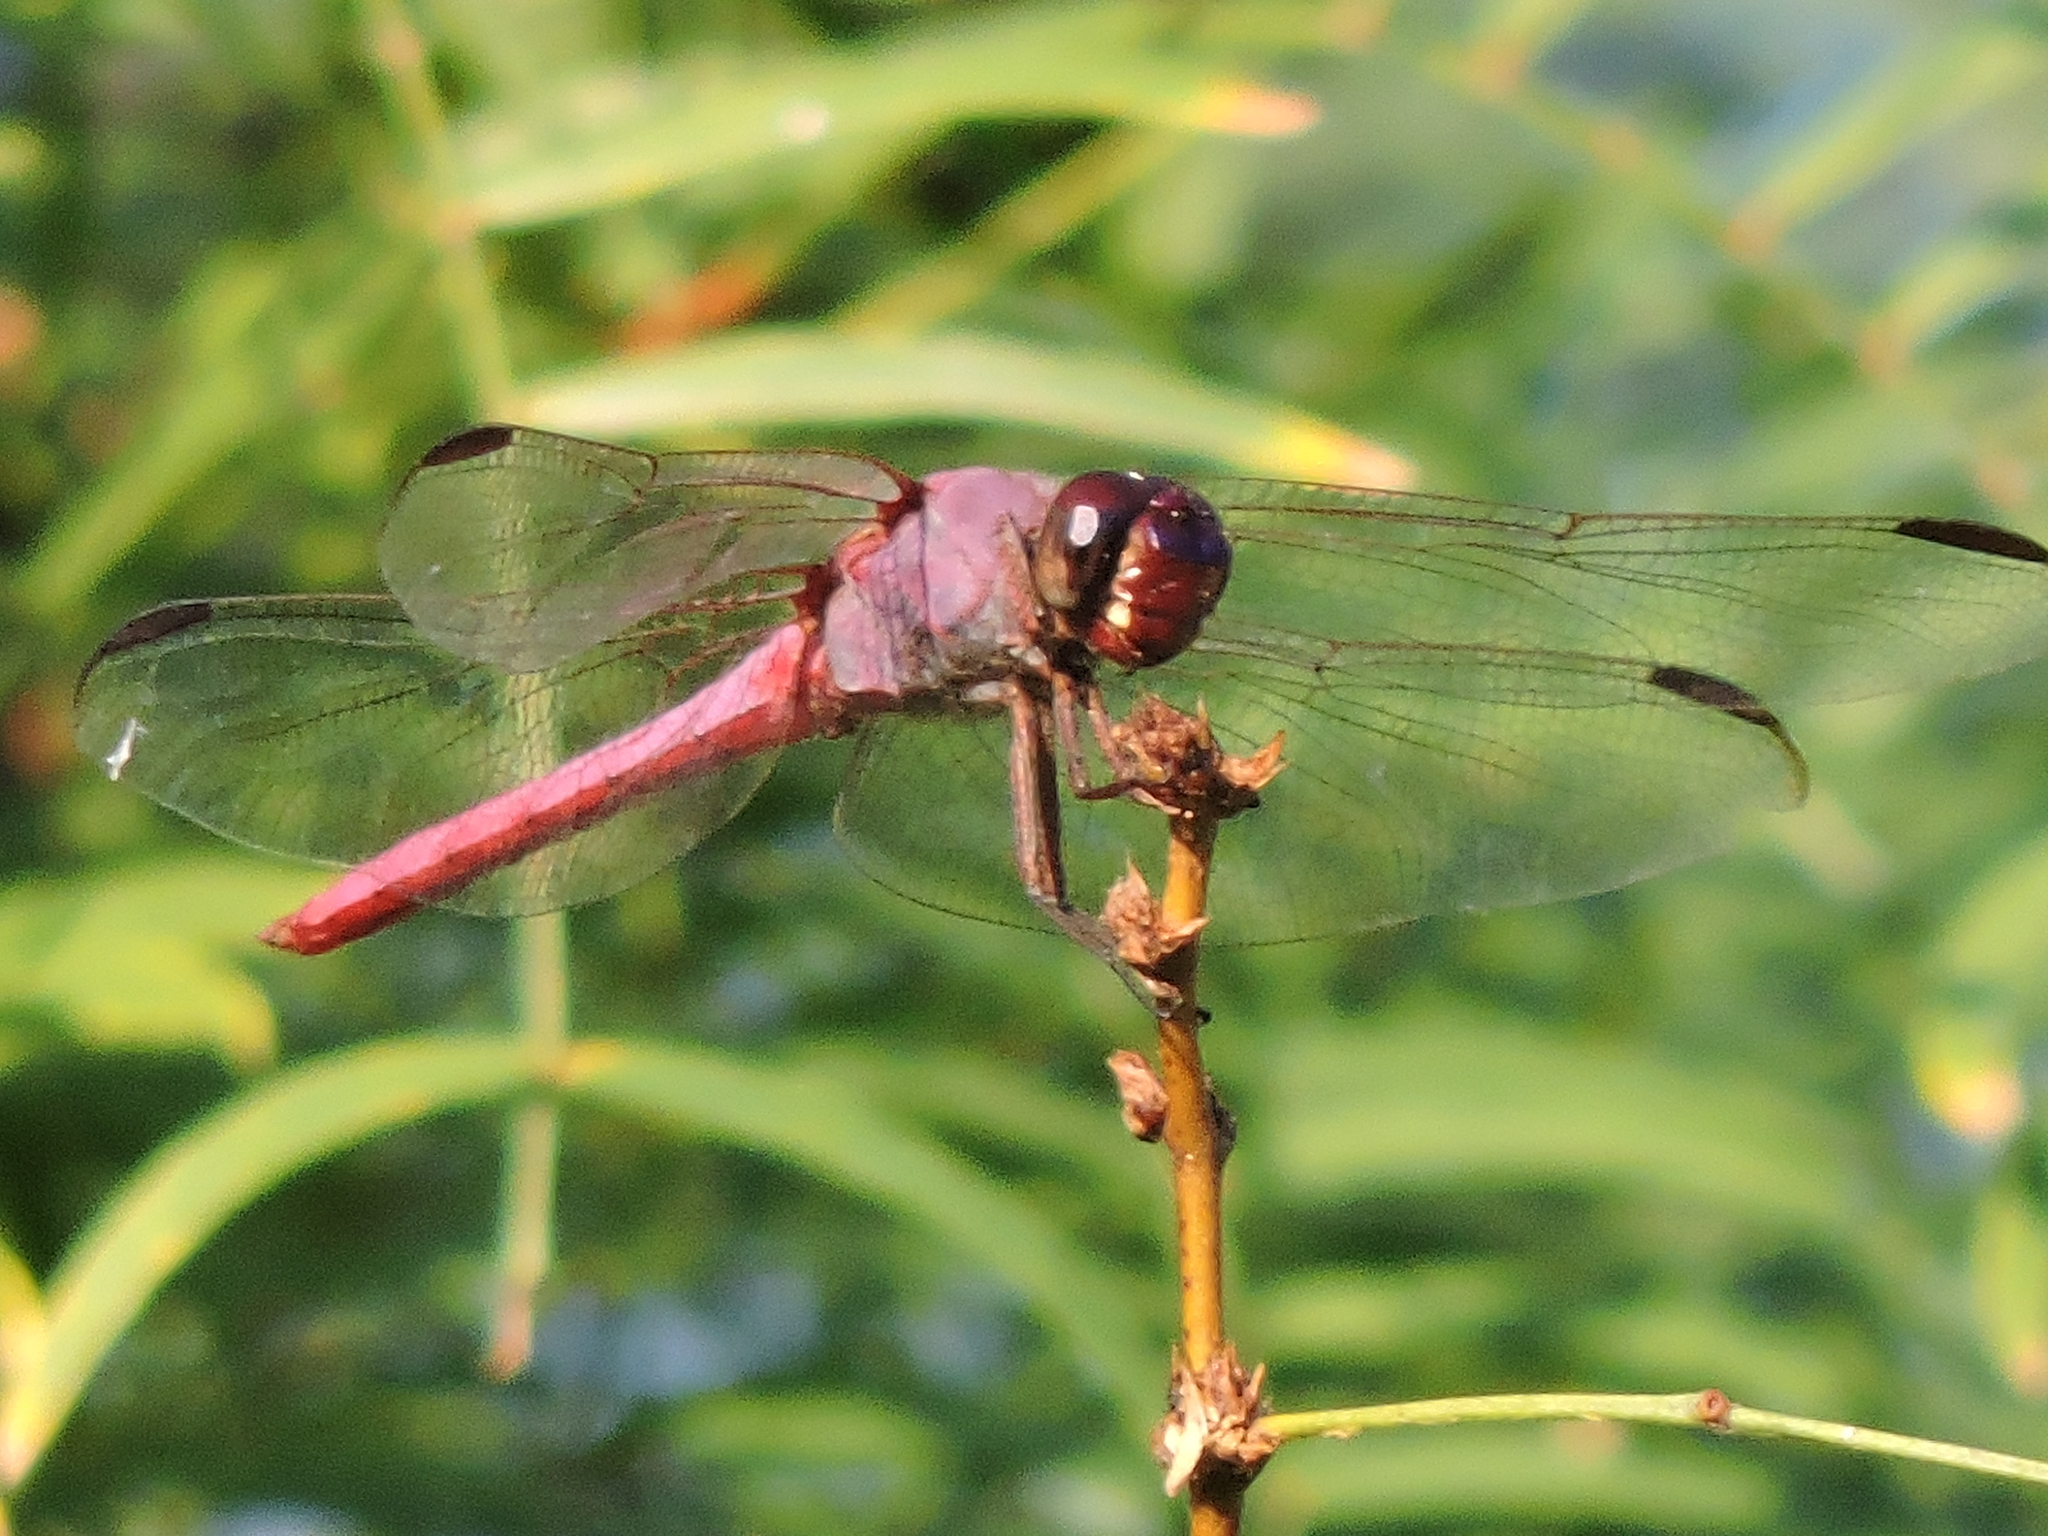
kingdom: Animalia
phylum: Arthropoda
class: Insecta
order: Odonata
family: Libellulidae
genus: Orthemis
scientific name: Orthemis ferruginea
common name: Roseate skimmer
